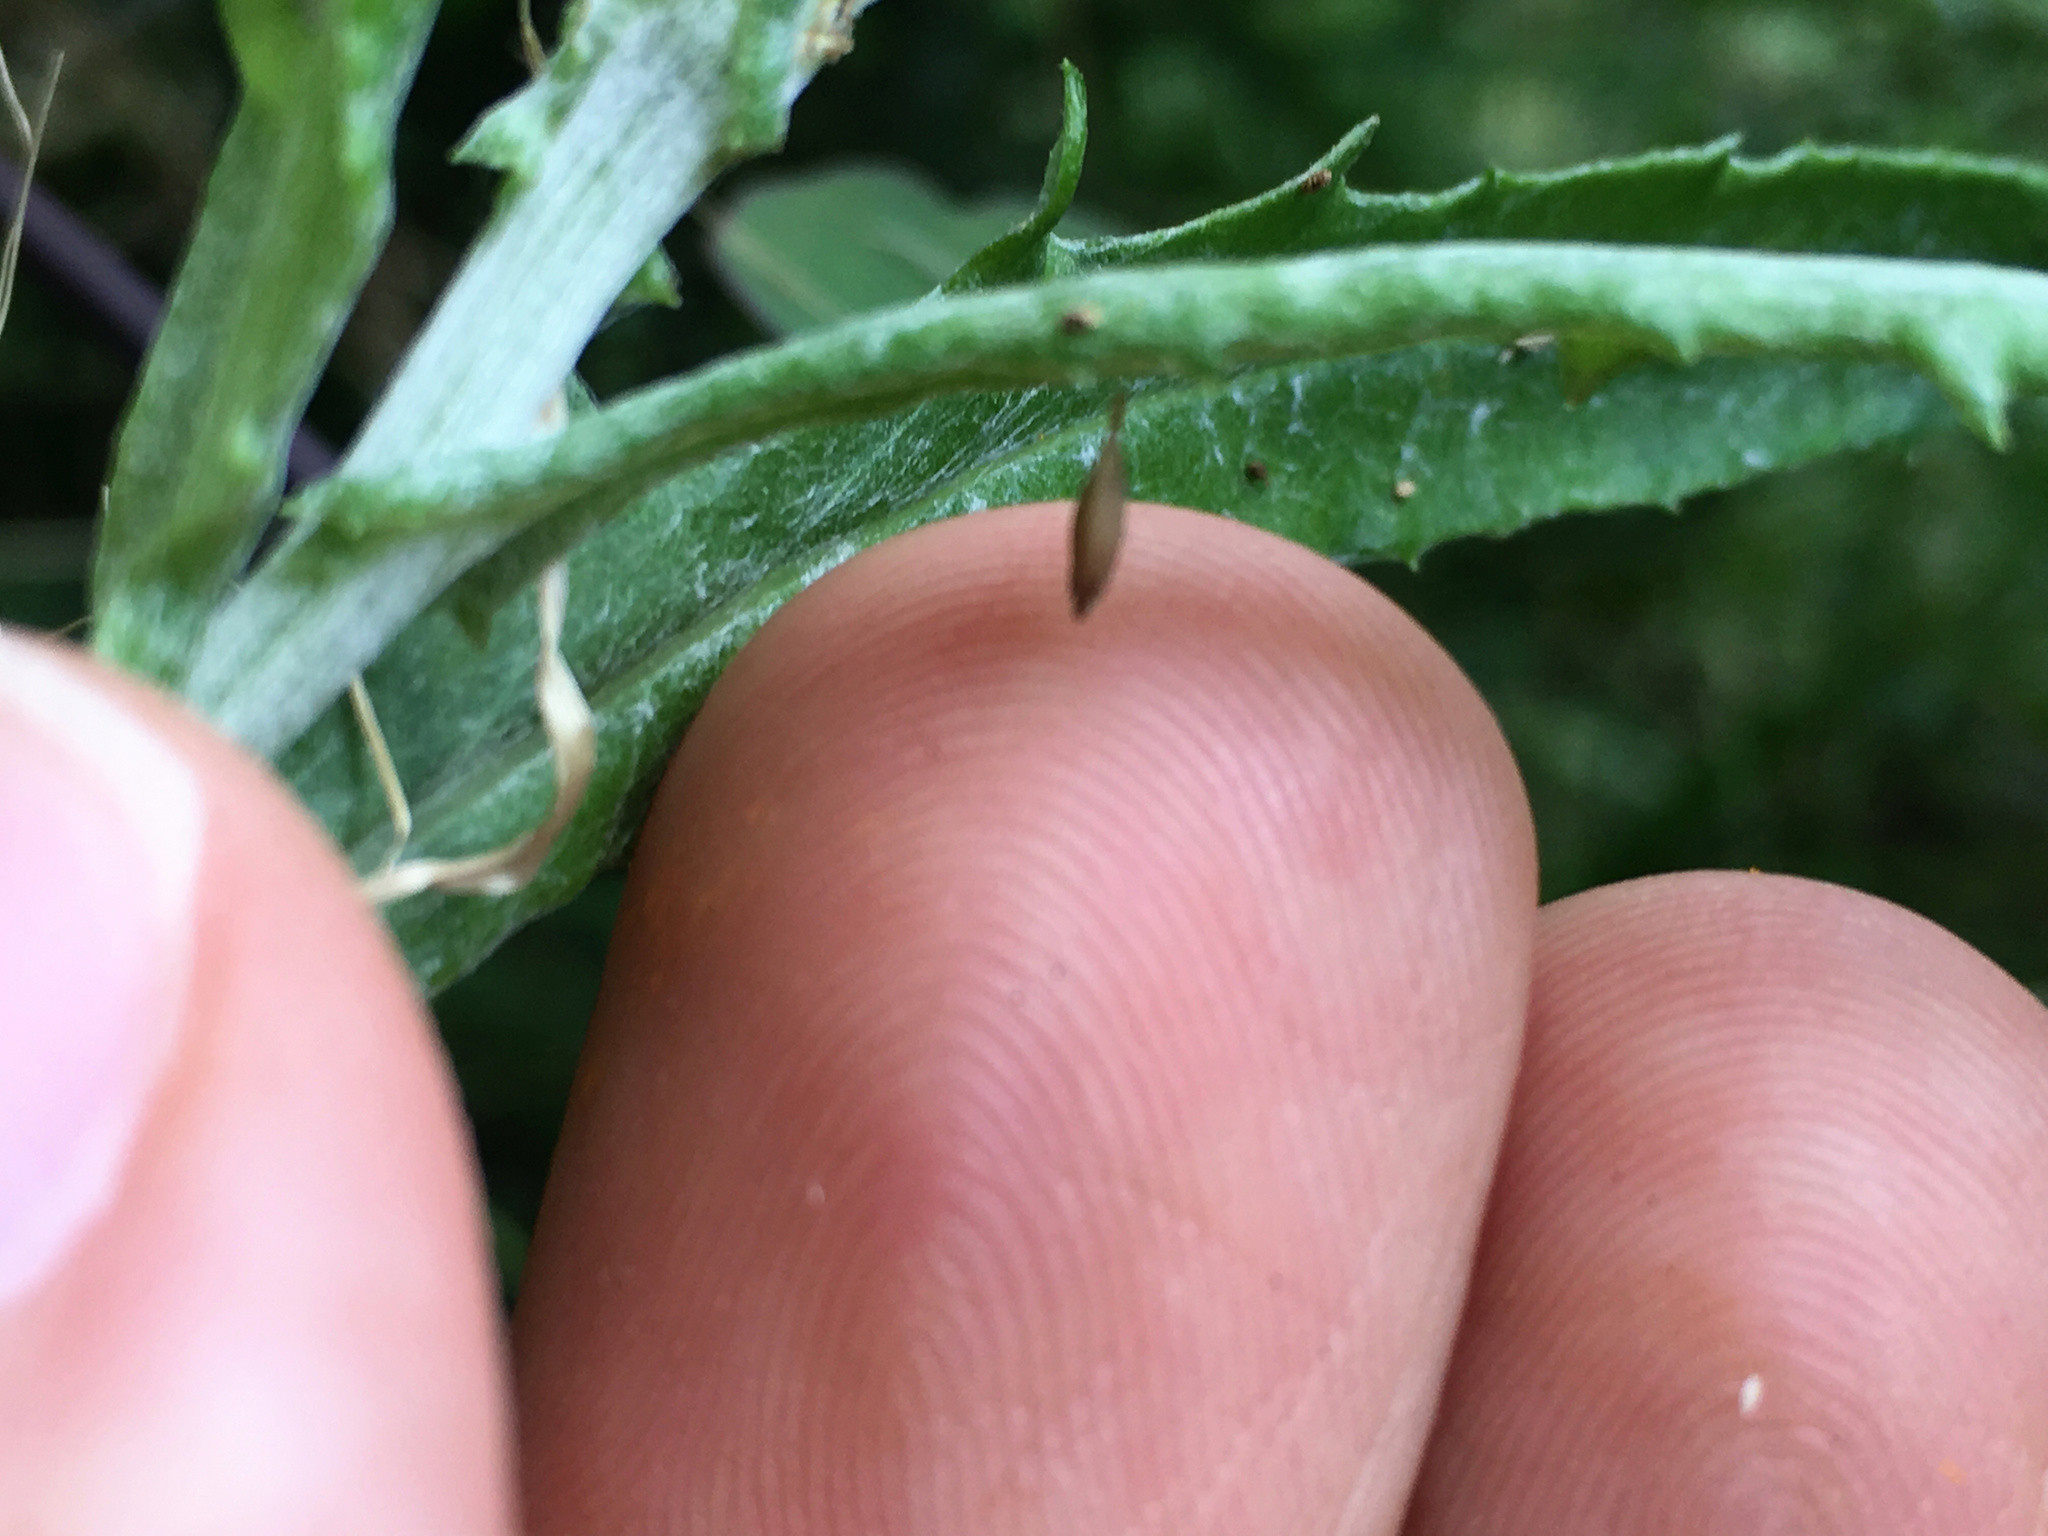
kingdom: Animalia
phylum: Arthropoda
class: Insecta
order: Hymenoptera
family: Braconidae
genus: Meteorus
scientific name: Meteorus pulchricornis
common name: Braconid wasp
